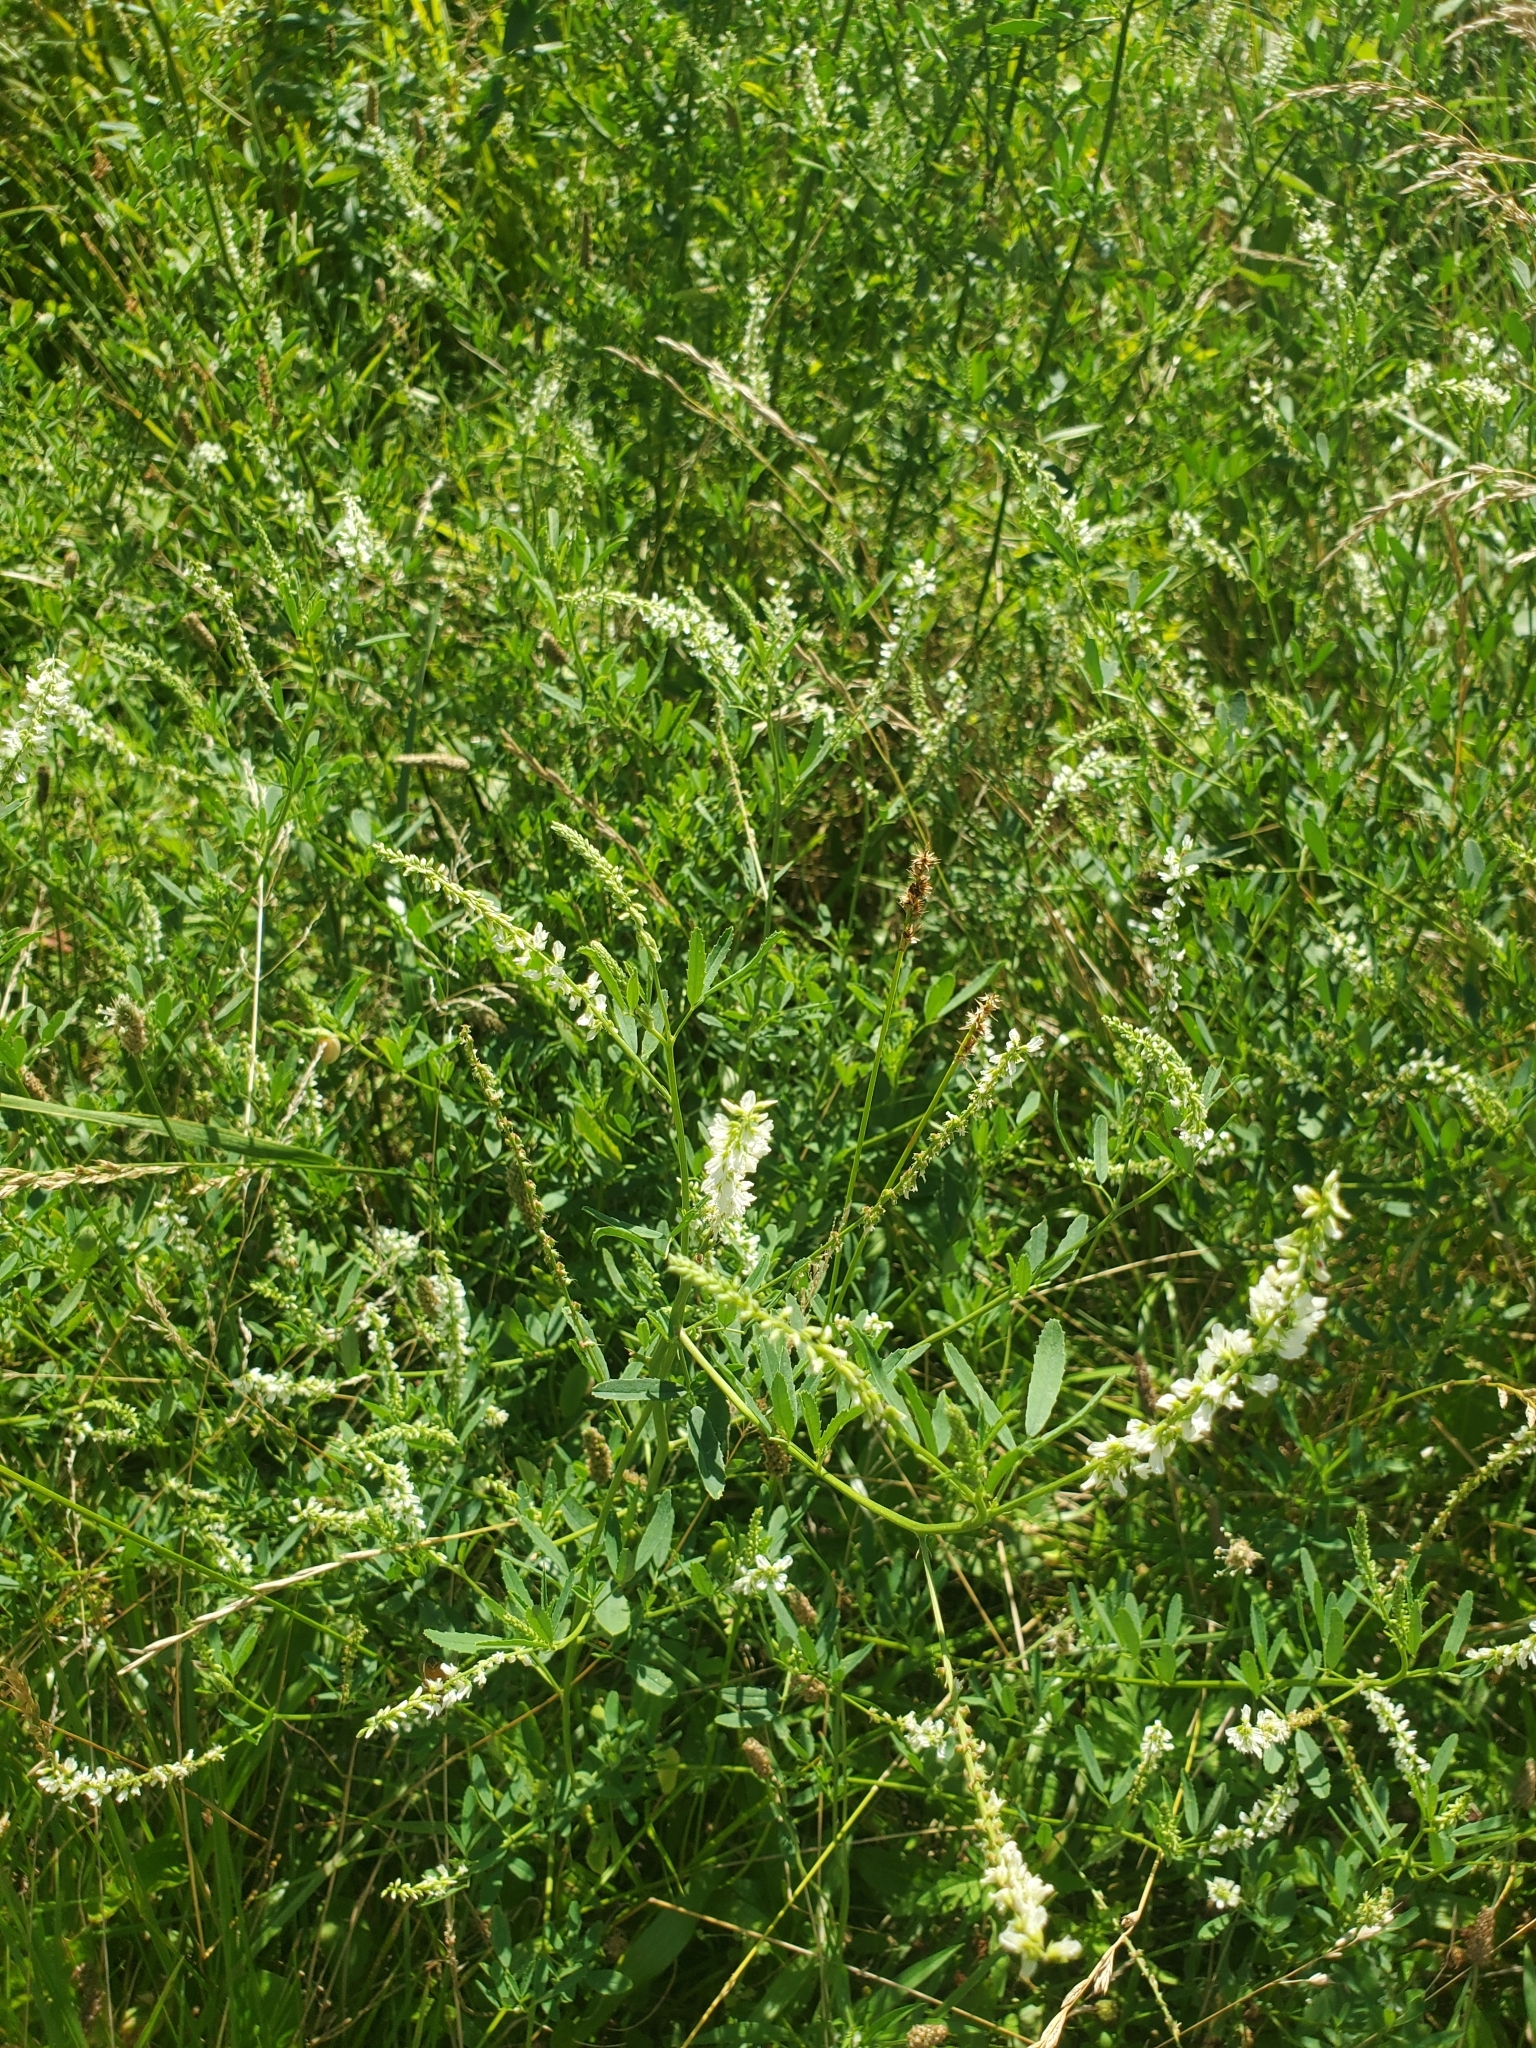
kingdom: Plantae
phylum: Tracheophyta
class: Magnoliopsida
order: Fabales
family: Fabaceae
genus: Melilotus
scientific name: Melilotus albus
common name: White melilot
